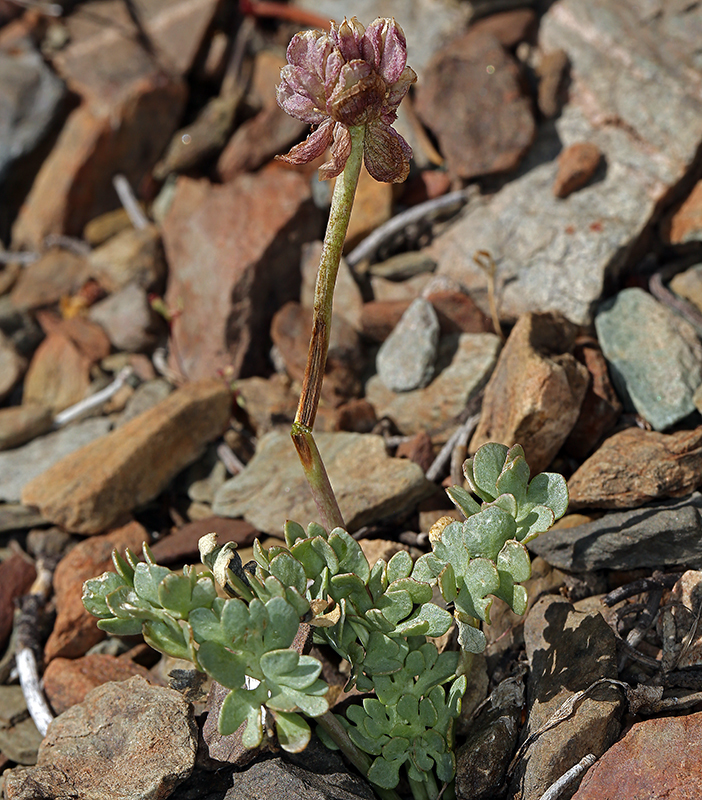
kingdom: Plantae
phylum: Tracheophyta
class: Magnoliopsida
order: Ranunculales
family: Ranunculaceae
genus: Beckwithia
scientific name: Beckwithia andersonii
